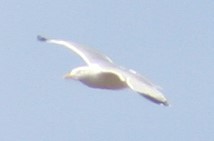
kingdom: Animalia
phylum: Chordata
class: Aves
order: Charadriiformes
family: Laridae
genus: Larus
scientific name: Larus argentatus
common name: Herring gull
